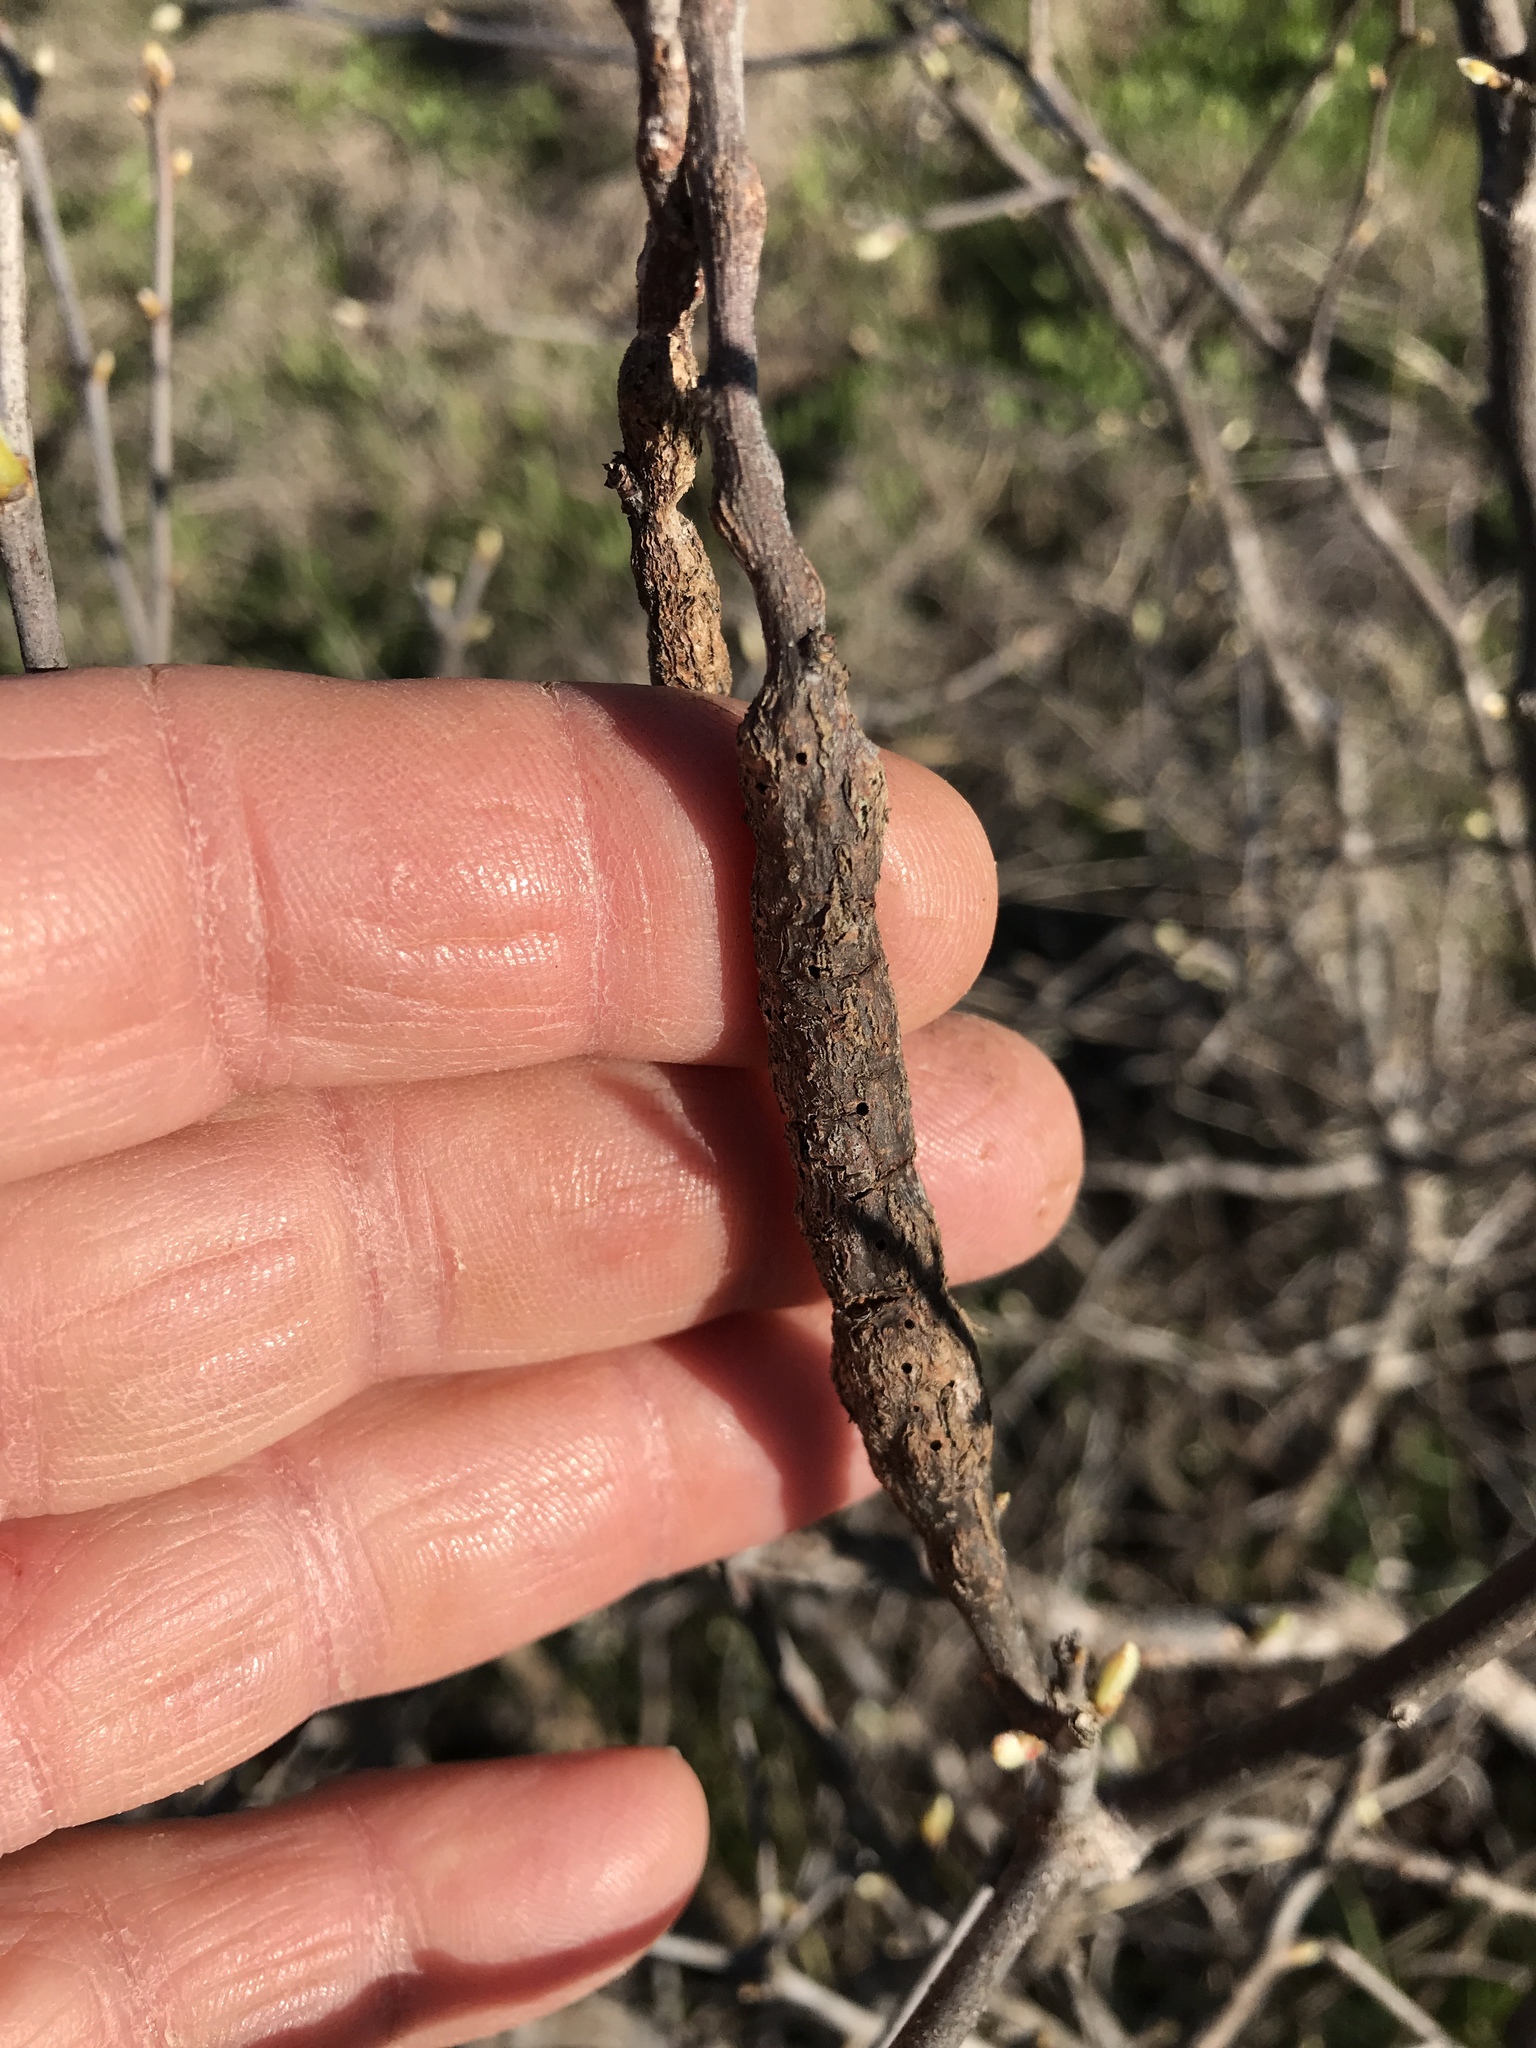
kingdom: Animalia
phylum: Arthropoda
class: Insecta
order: Diptera
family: Cecidomyiidae
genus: Bruggmanniella
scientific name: Bruggmanniella bumeliae
